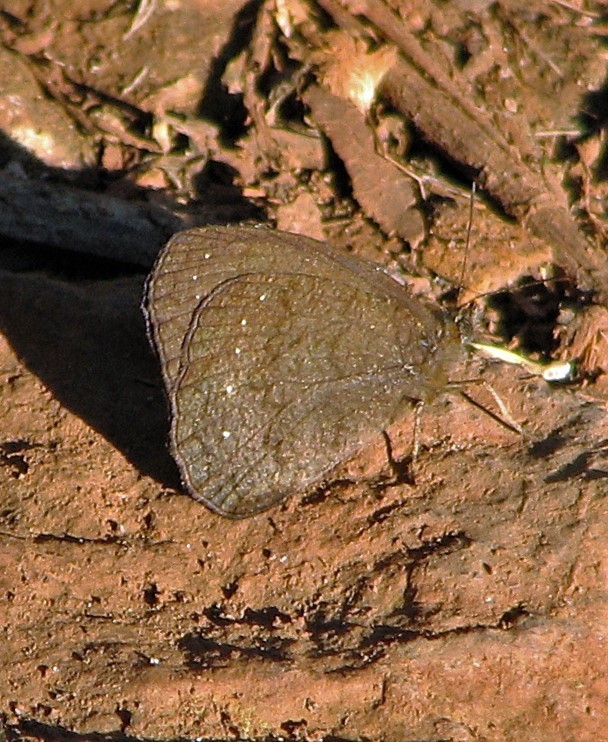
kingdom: Animalia
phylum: Arthropoda
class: Insecta
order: Lepidoptera
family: Nymphalidae
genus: Forsterinaria
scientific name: Forsterinaria necys
